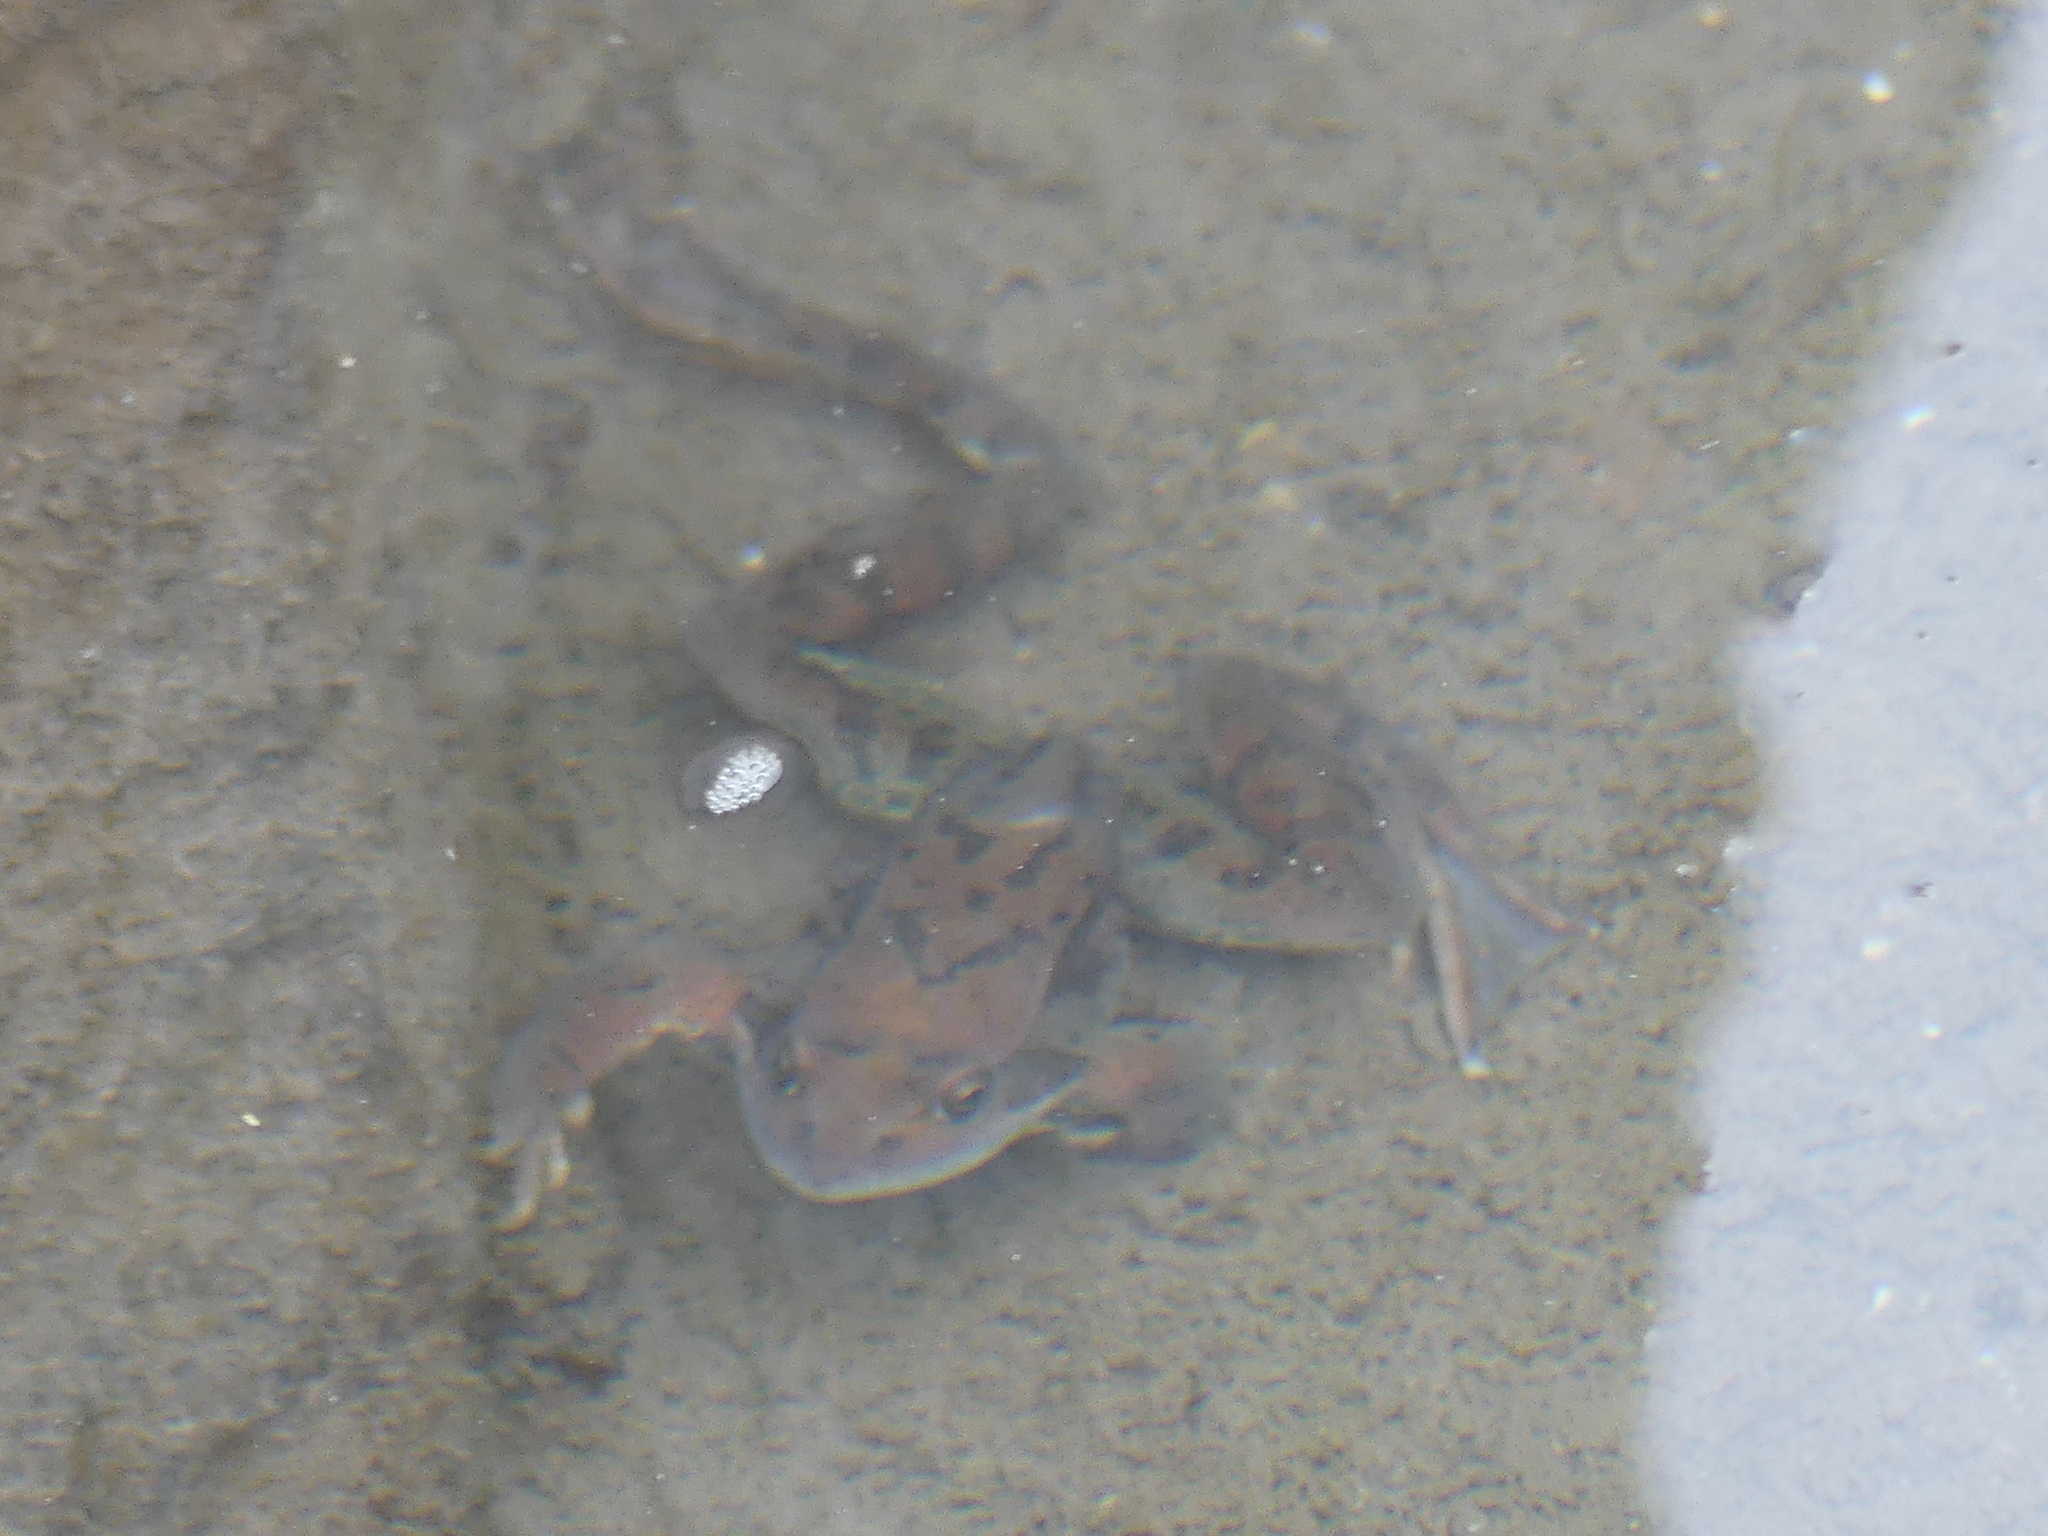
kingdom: Animalia
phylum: Chordata
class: Amphibia
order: Anura
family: Ranidae
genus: Rana
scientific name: Rana temporaria
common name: Common frog
